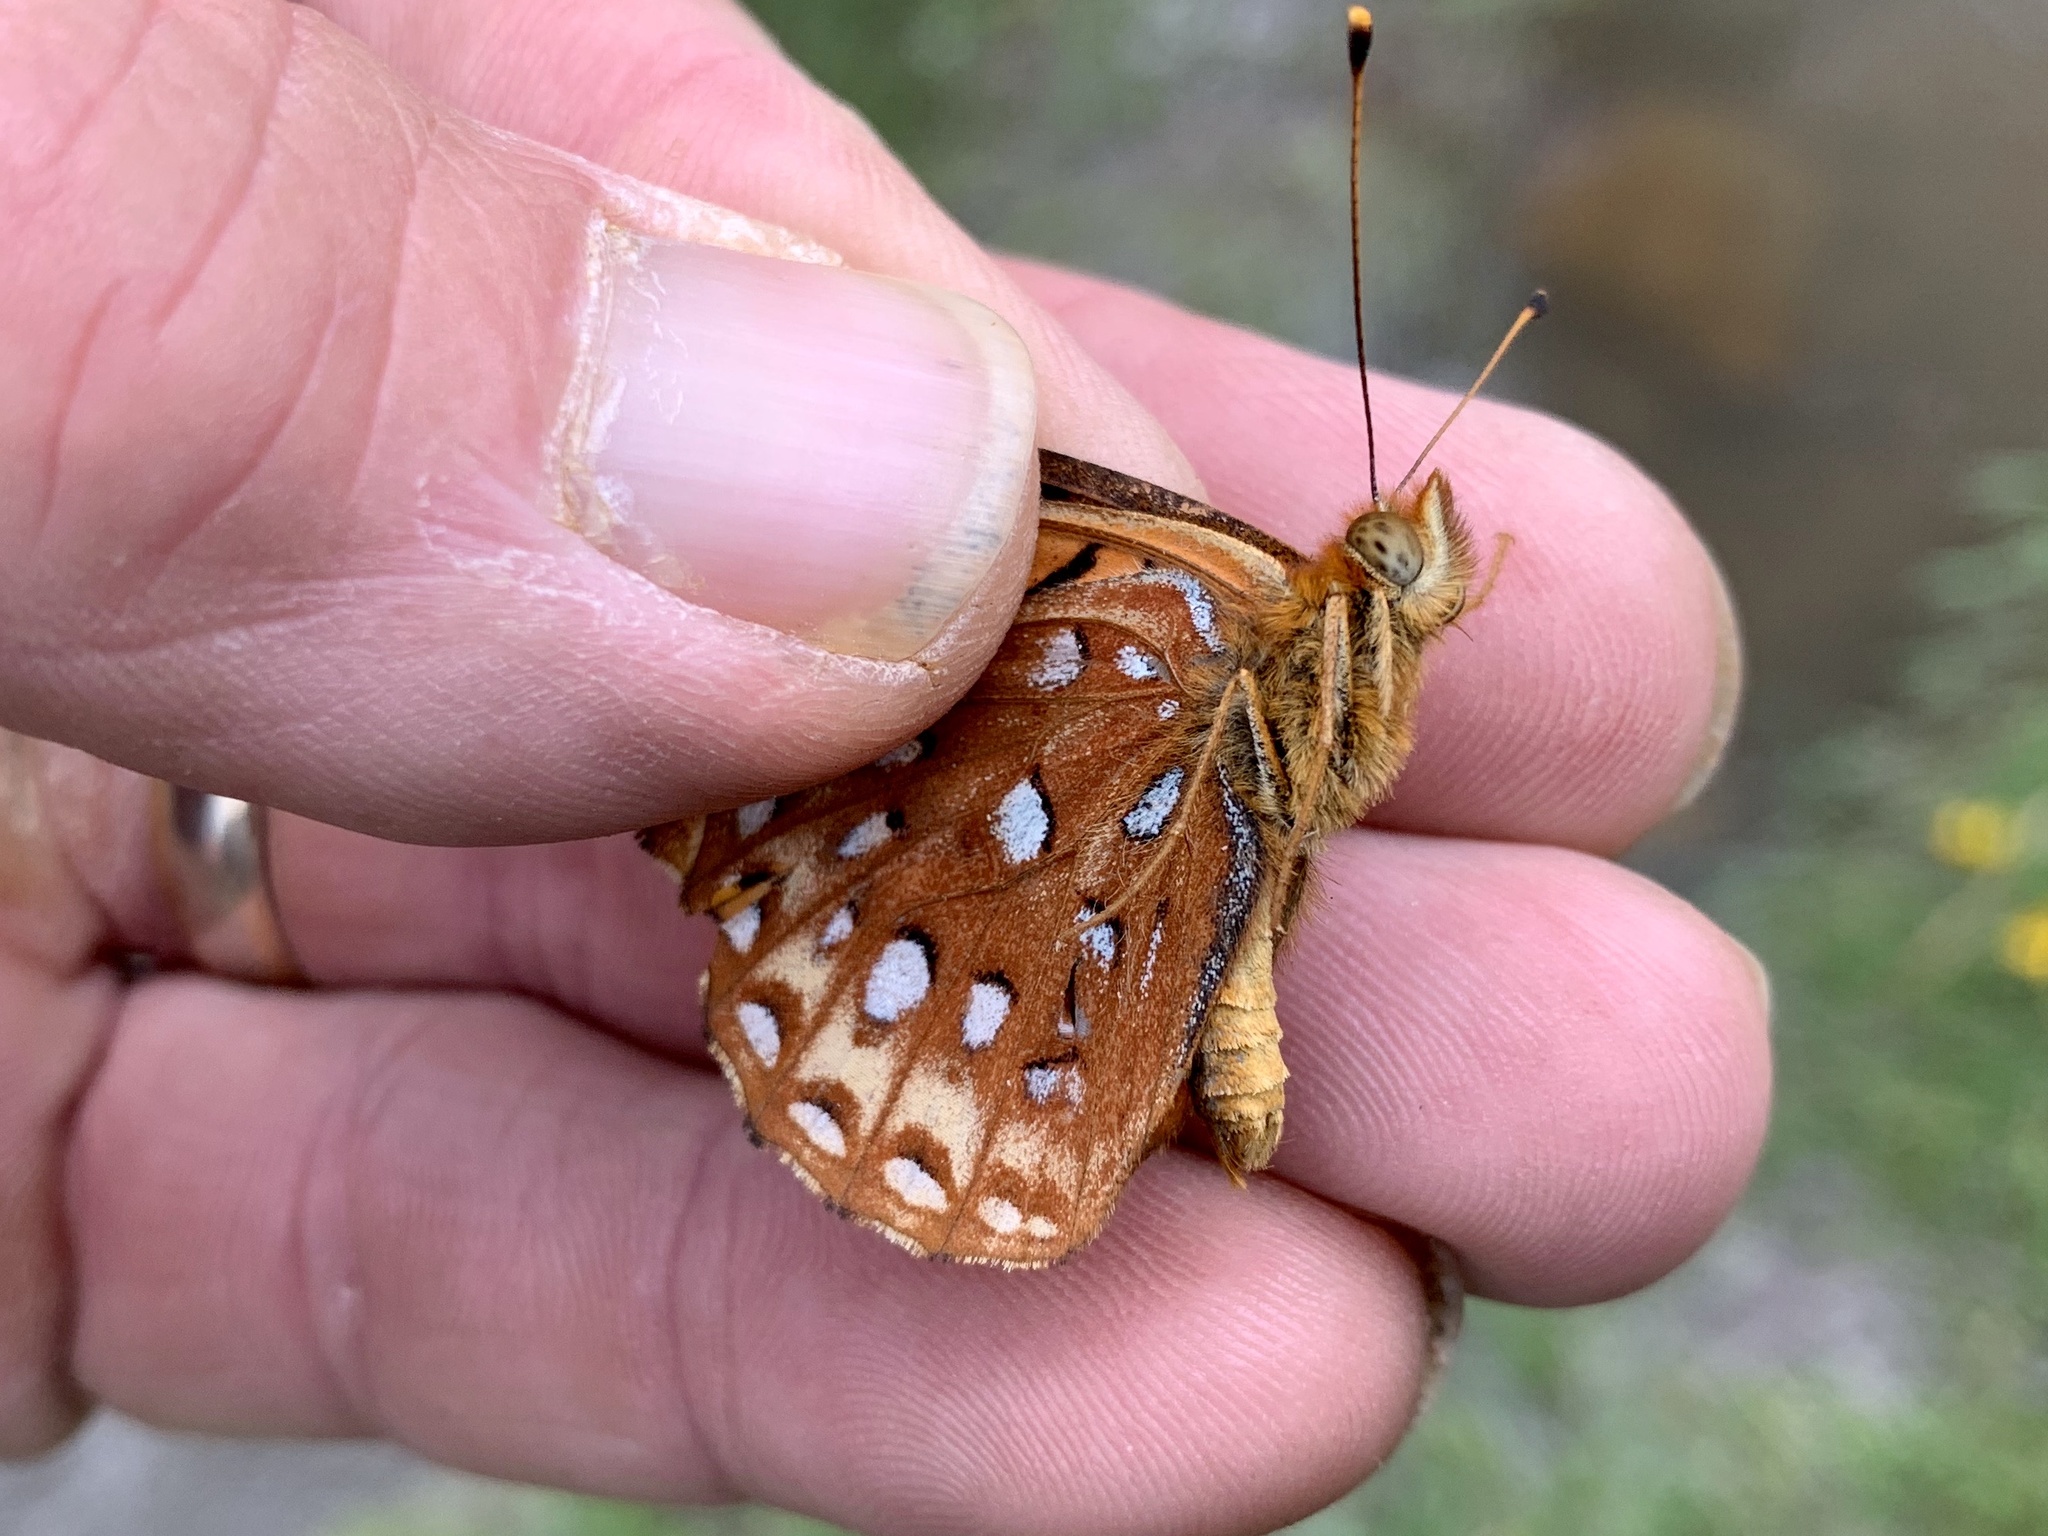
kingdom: Animalia
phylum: Arthropoda
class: Insecta
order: Lepidoptera
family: Nymphalidae
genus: Speyeria
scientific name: Speyeria atlantis
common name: Atlantis fritillary
